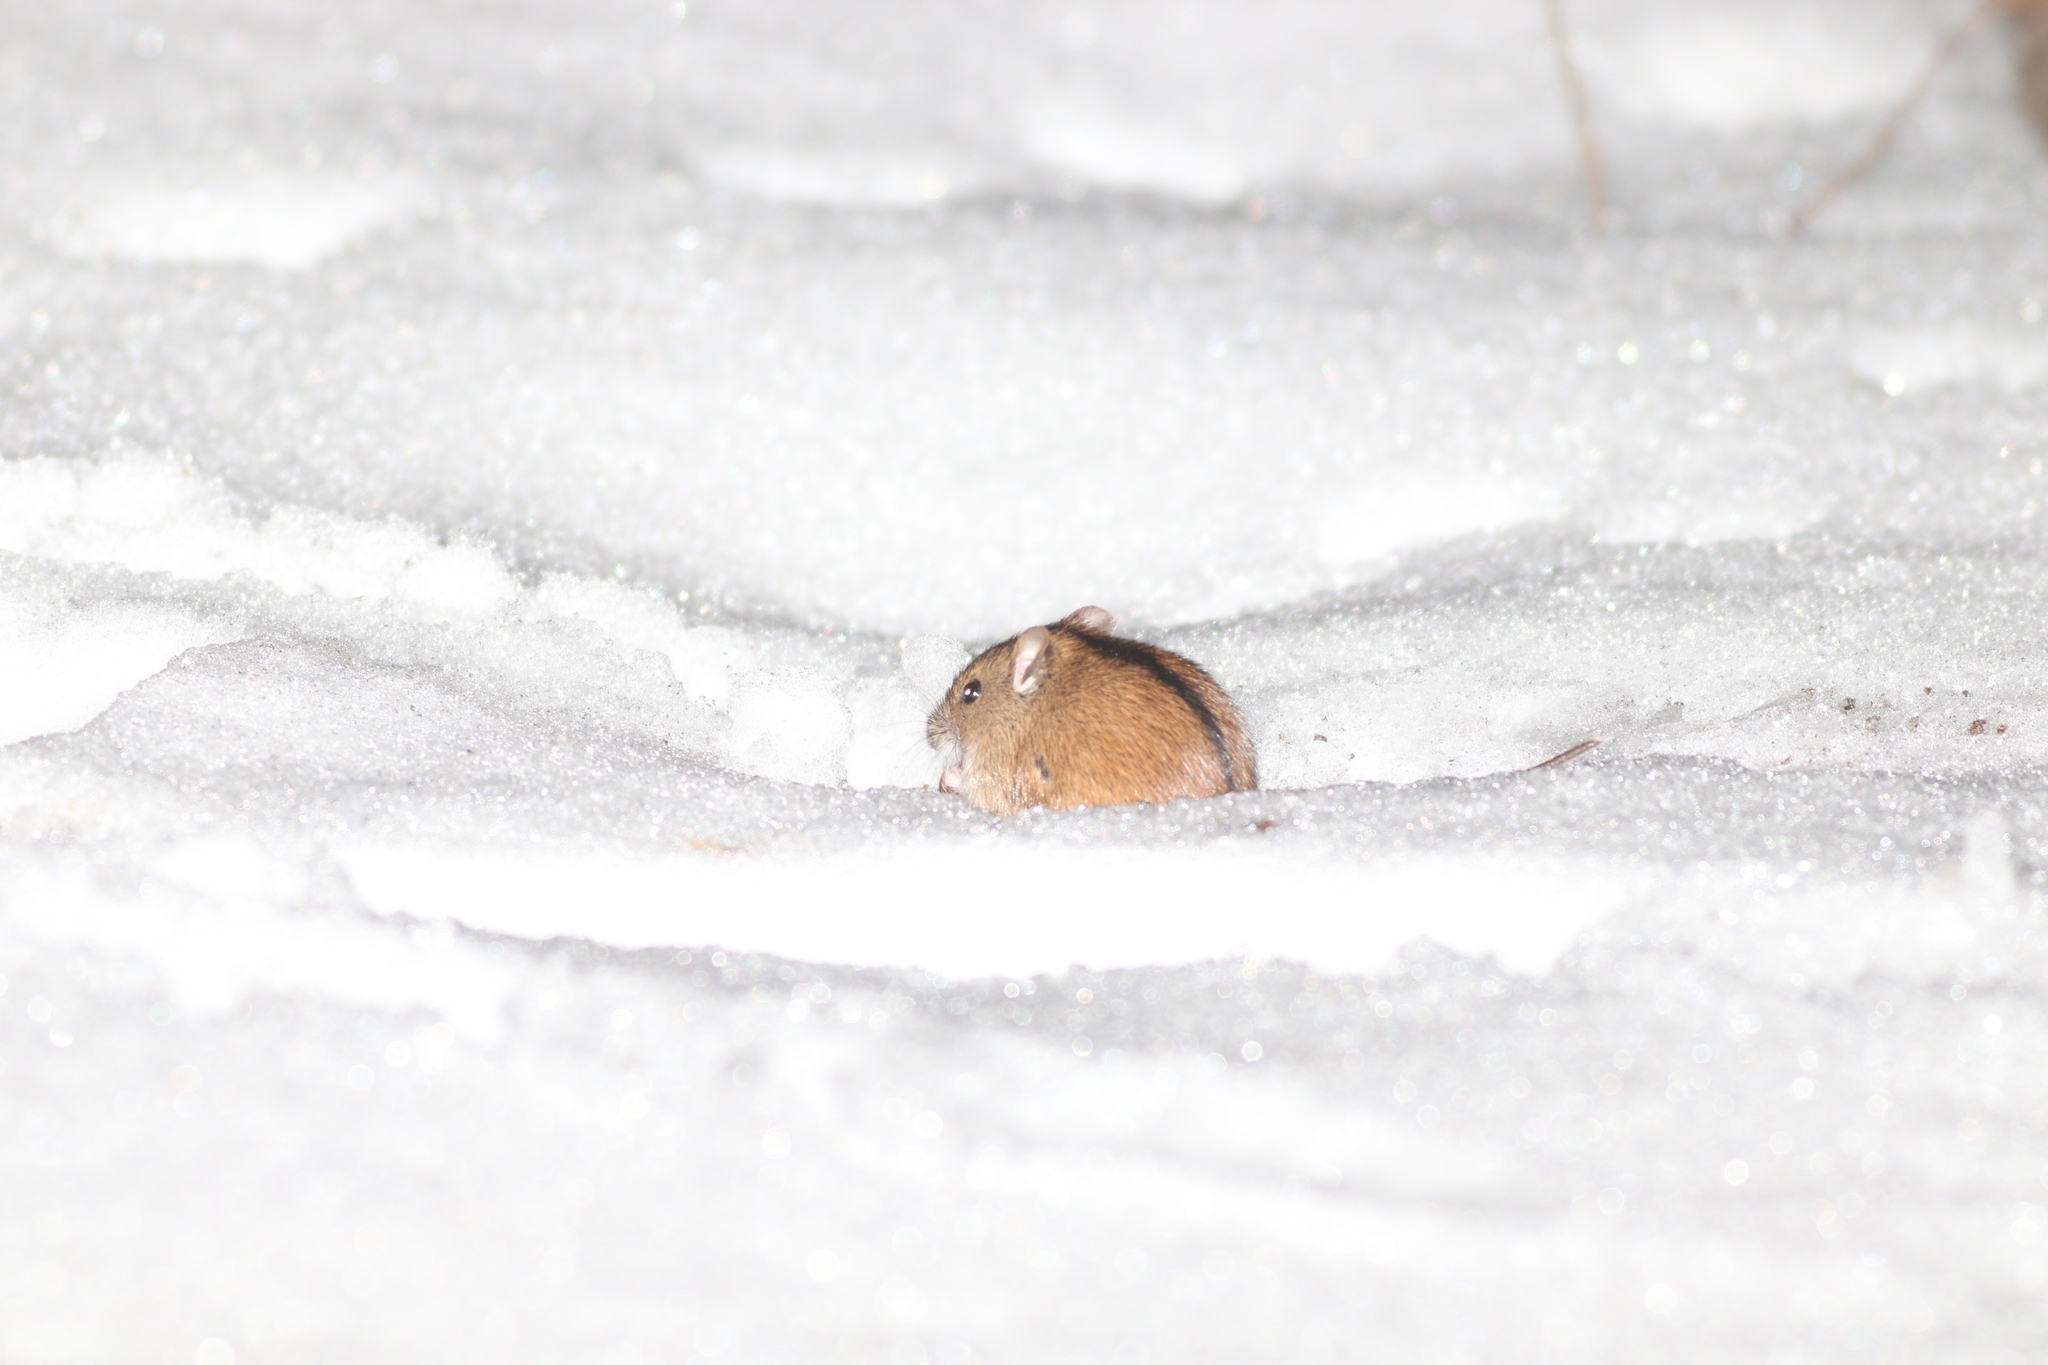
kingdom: Animalia
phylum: Chordata
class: Mammalia
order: Rodentia
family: Muridae
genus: Apodemus
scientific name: Apodemus agrarius
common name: Striped field mouse
